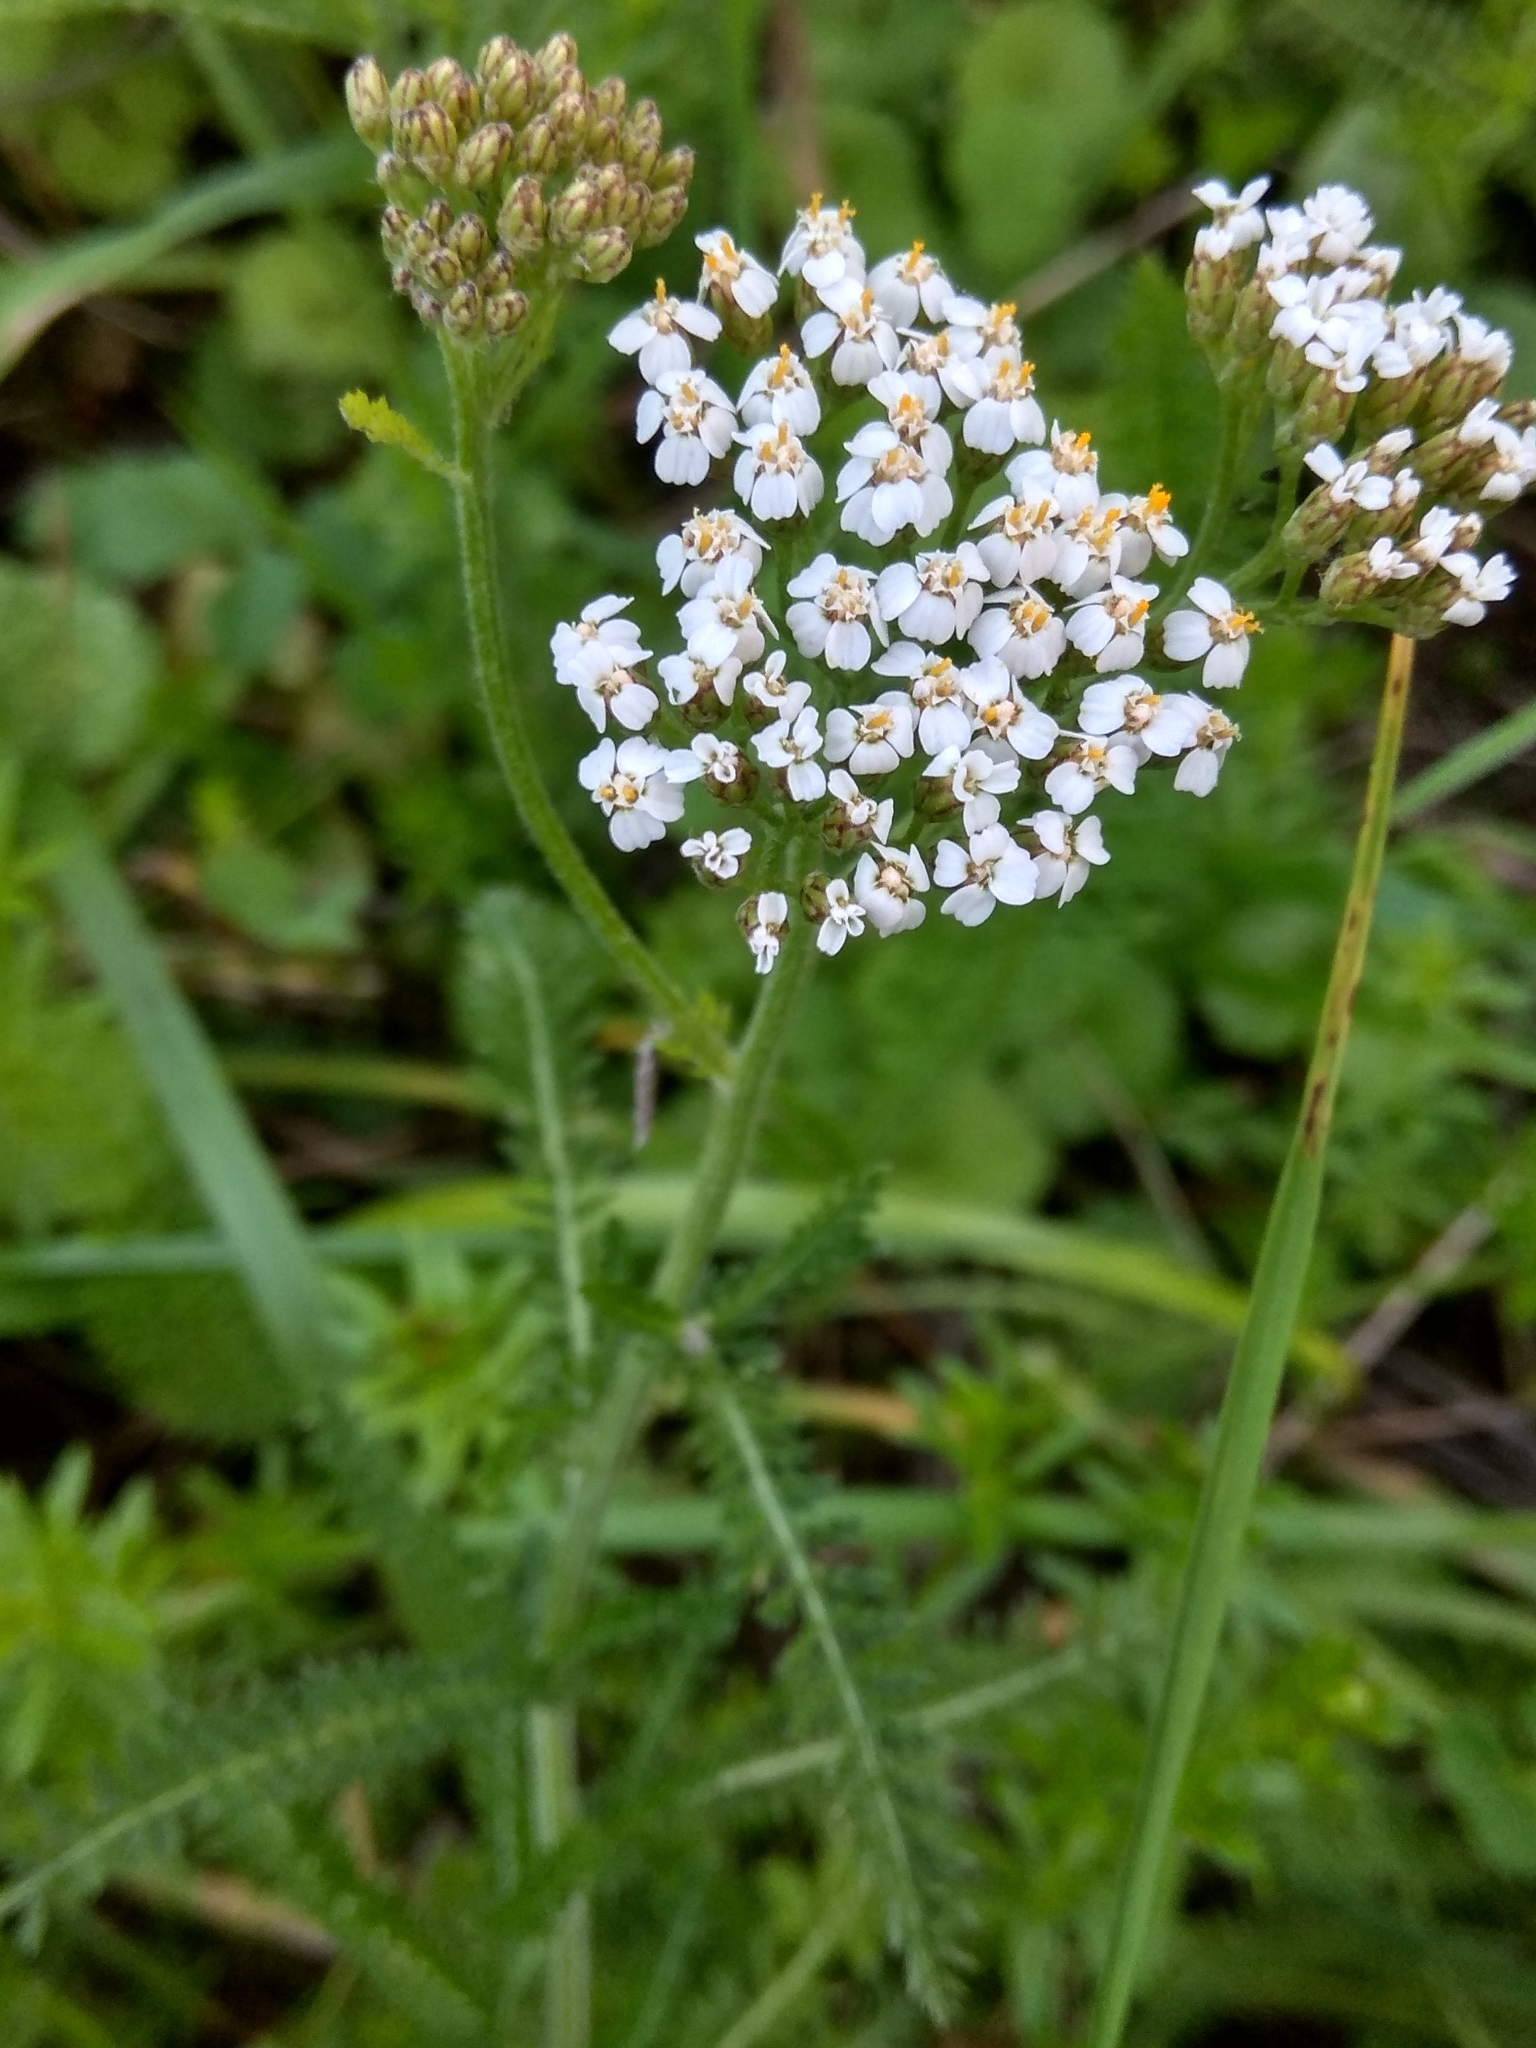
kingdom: Plantae
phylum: Tracheophyta
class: Magnoliopsida
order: Asterales
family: Asteraceae
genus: Achillea
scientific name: Achillea millefolium
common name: Yarrow
